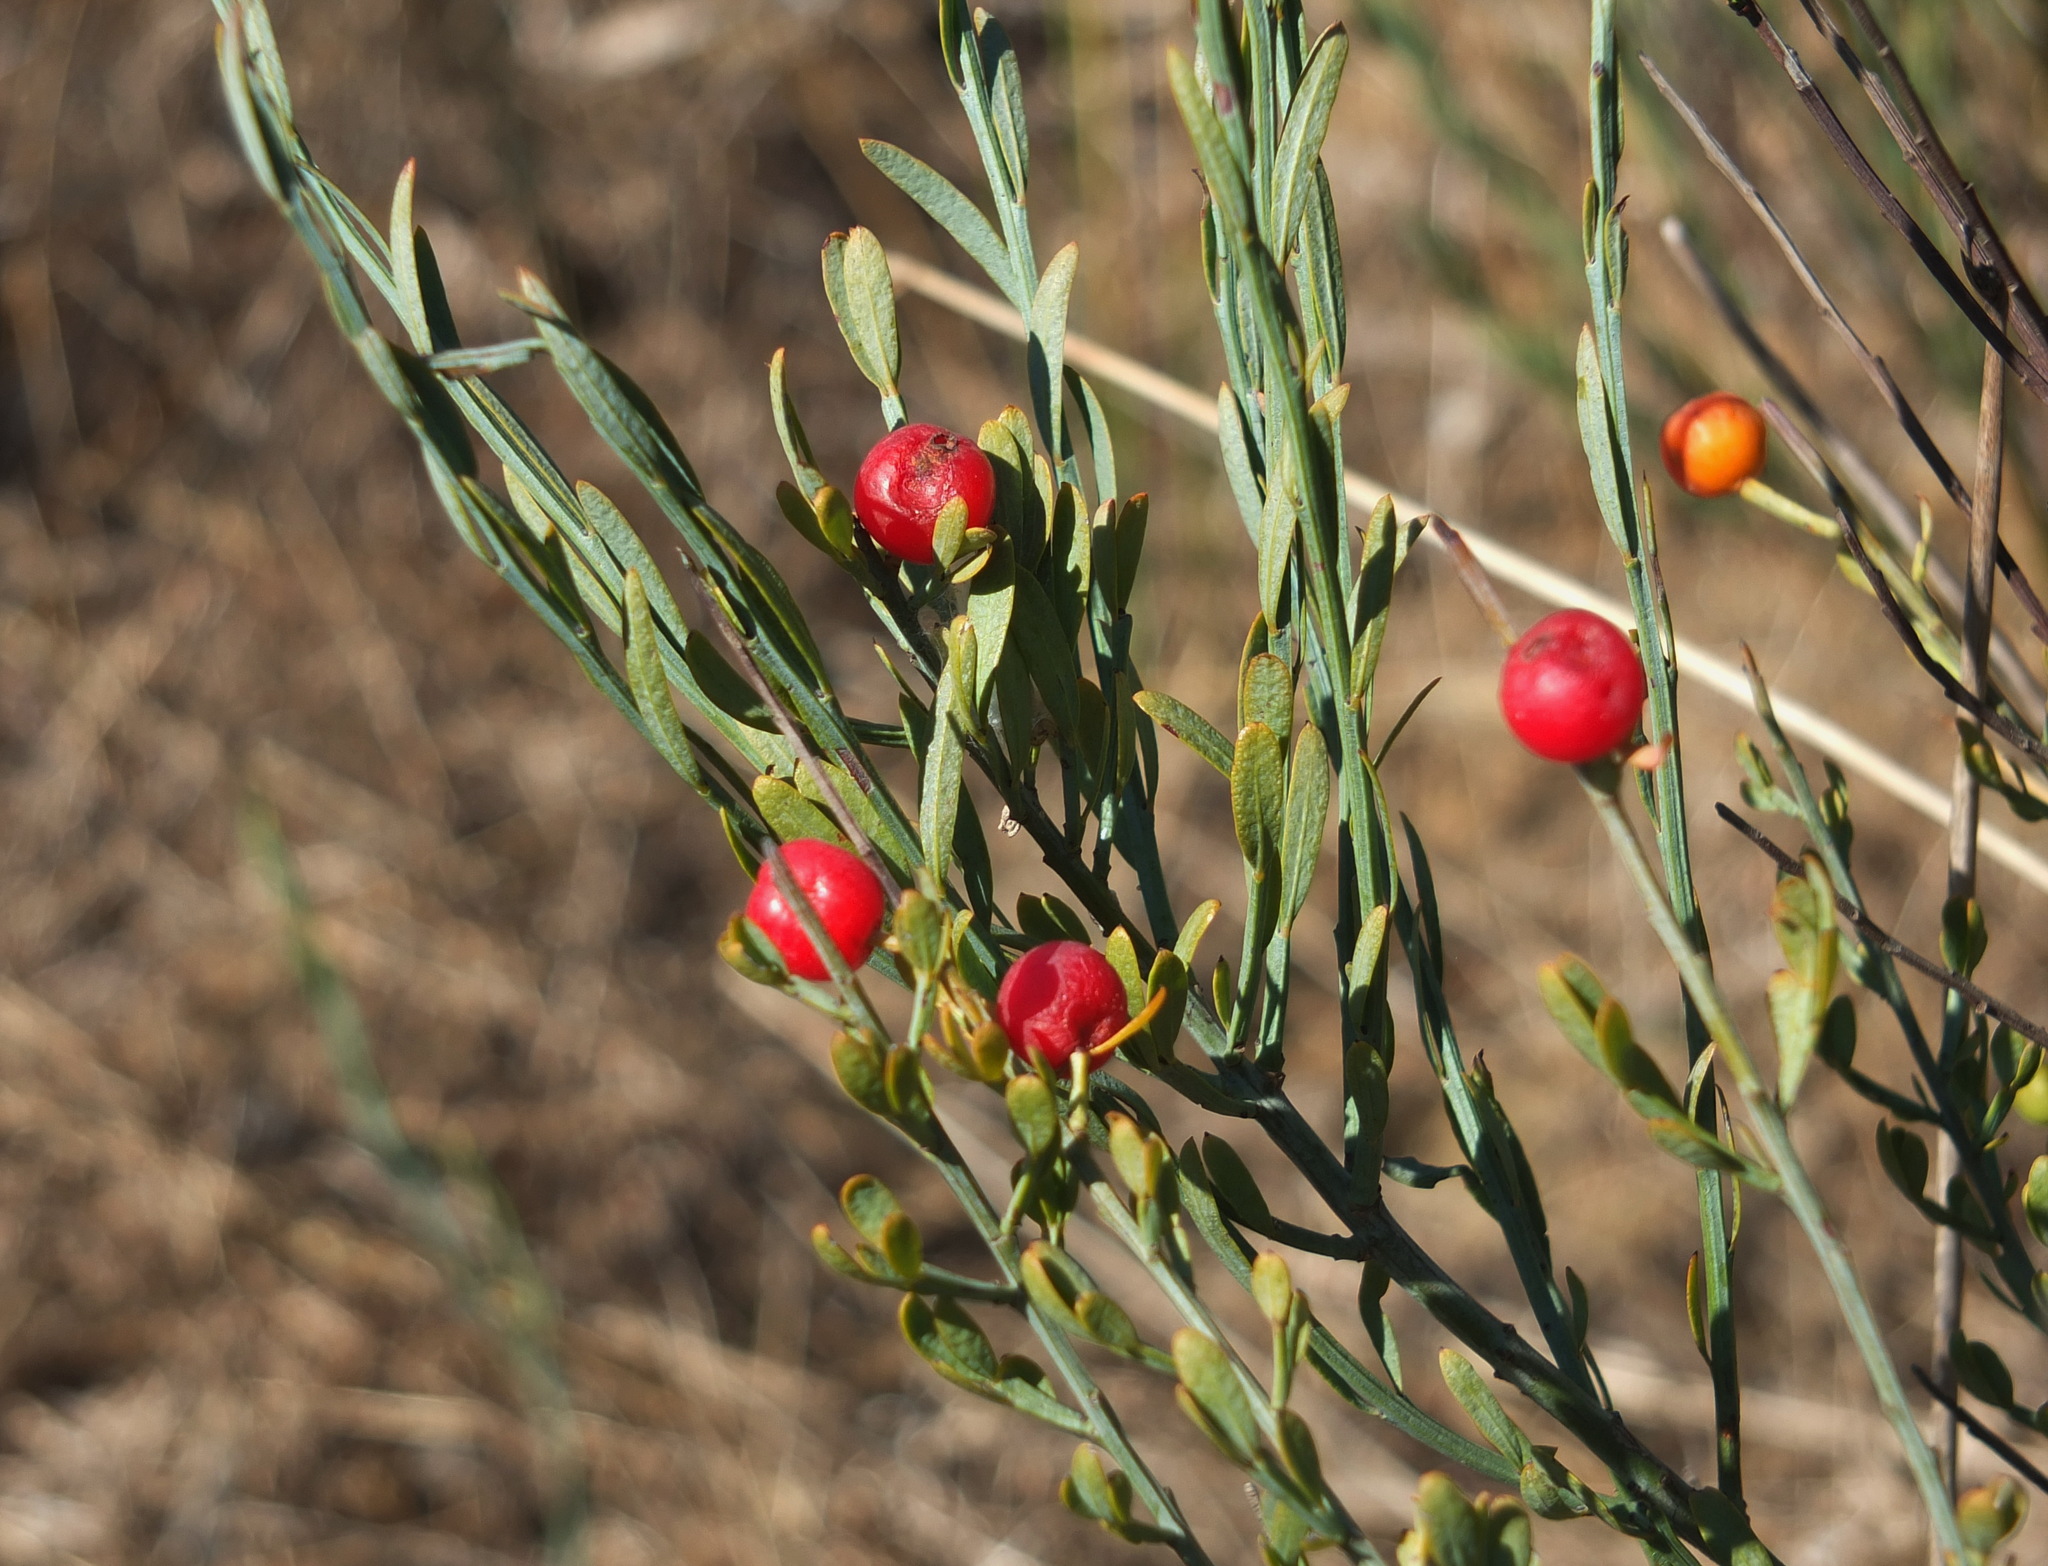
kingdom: Plantae
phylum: Tracheophyta
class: Magnoliopsida
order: Santalales
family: Santalaceae
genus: Osyris
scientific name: Osyris alba
